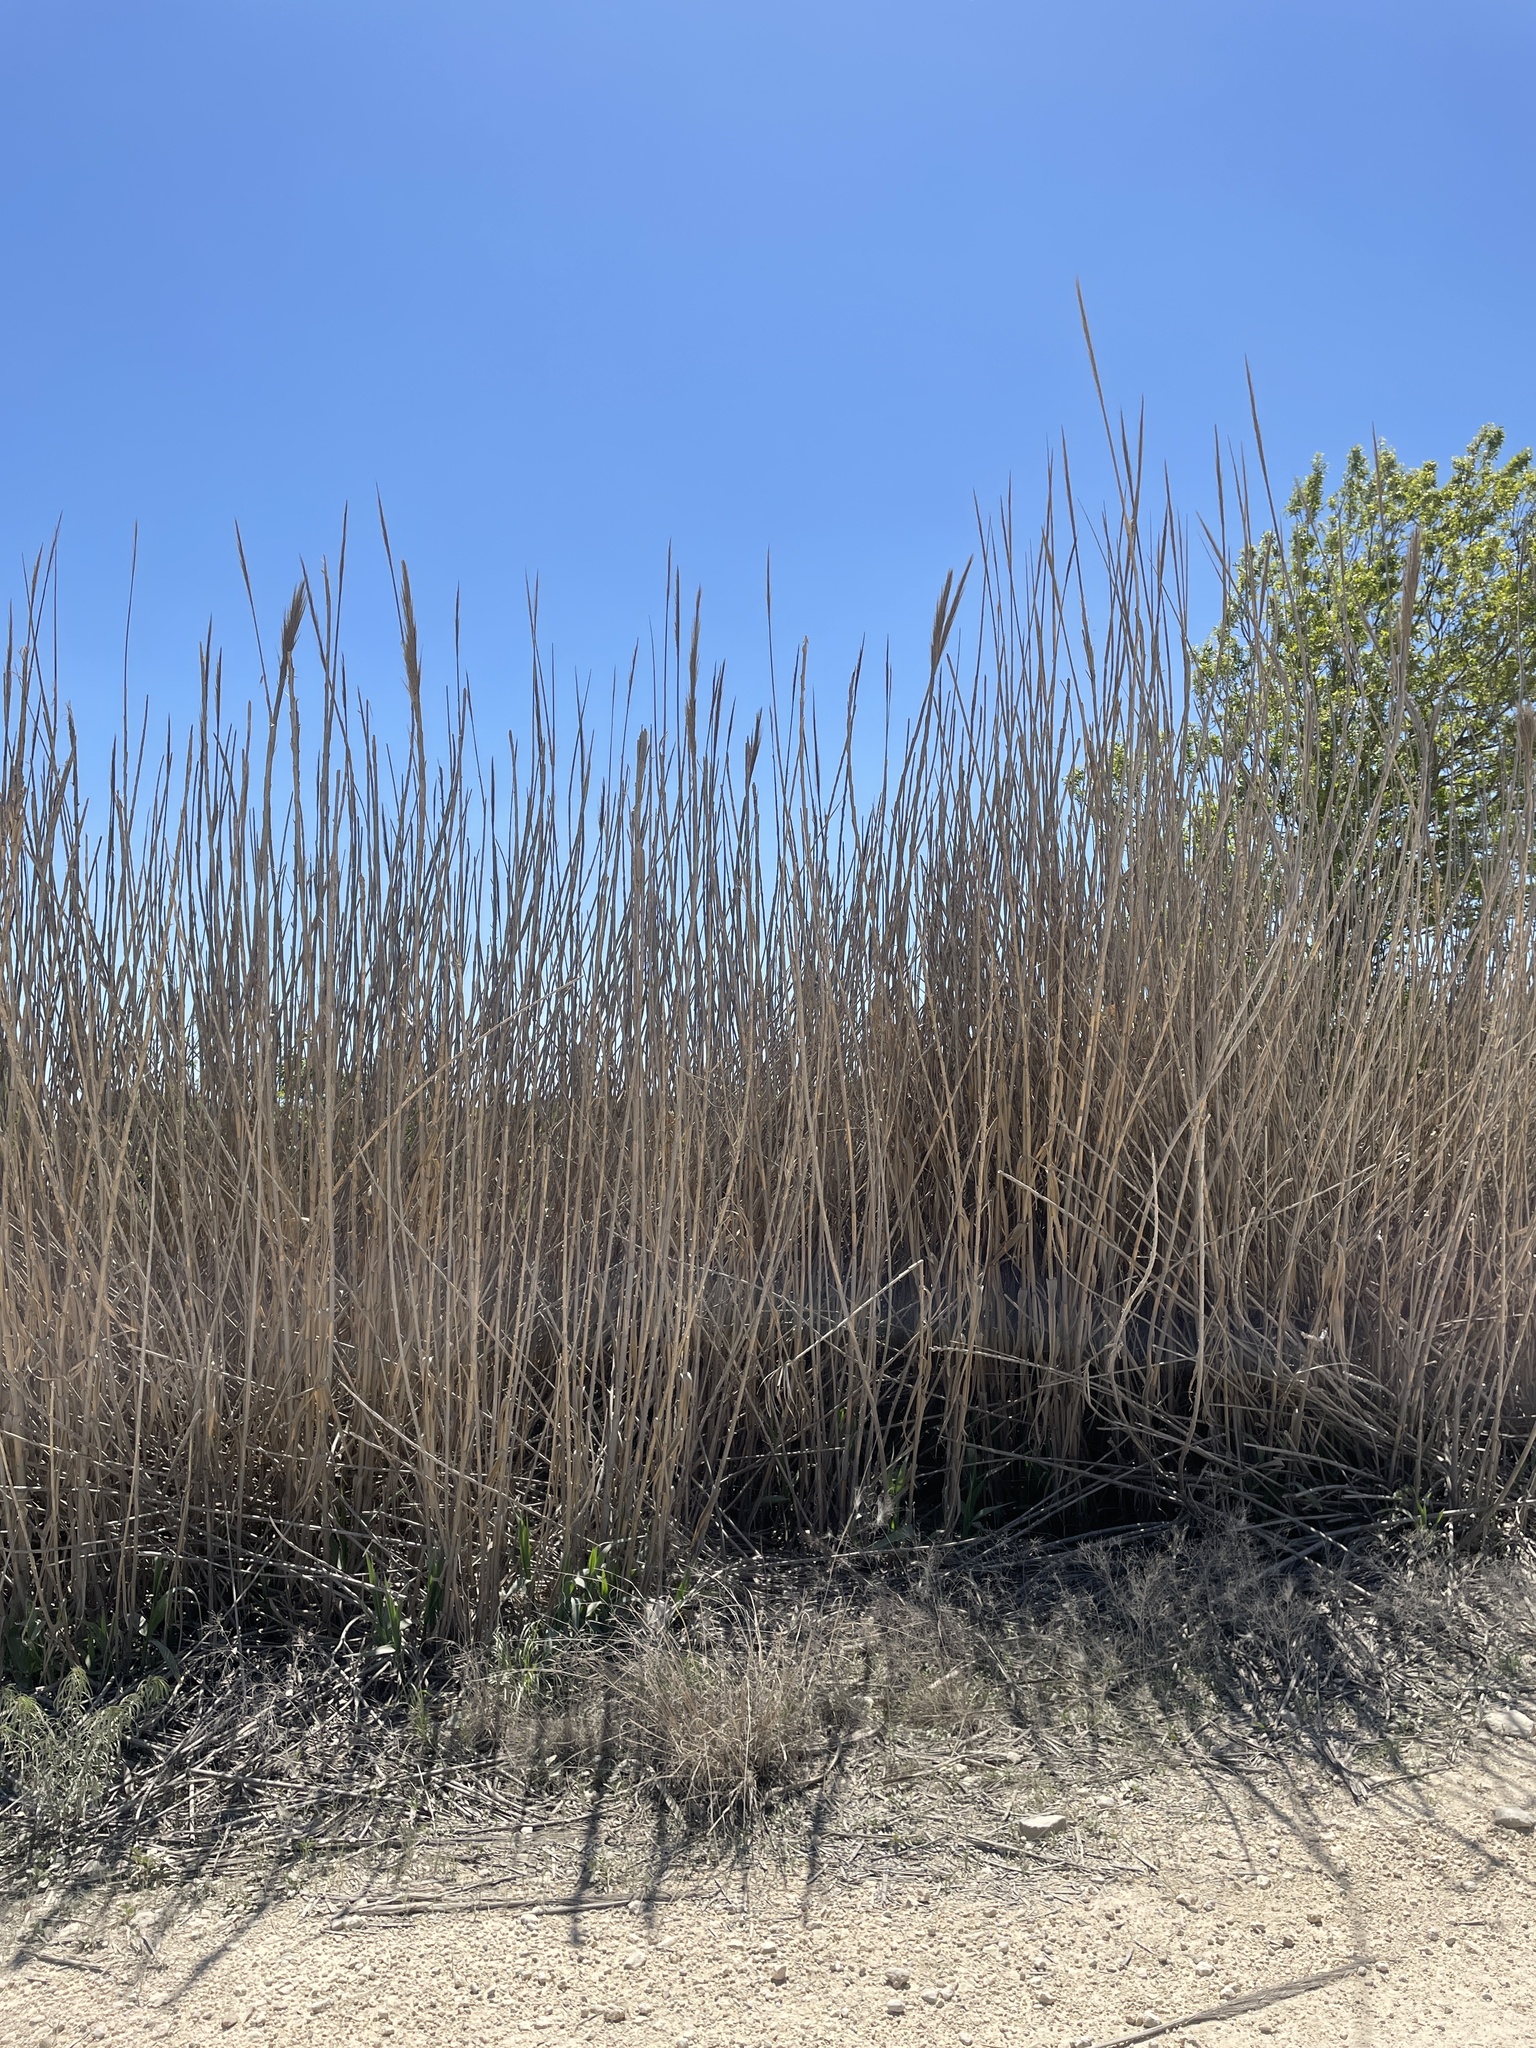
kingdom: Plantae
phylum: Tracheophyta
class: Liliopsida
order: Poales
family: Poaceae
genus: Arundo
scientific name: Arundo donax
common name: Giant reed
